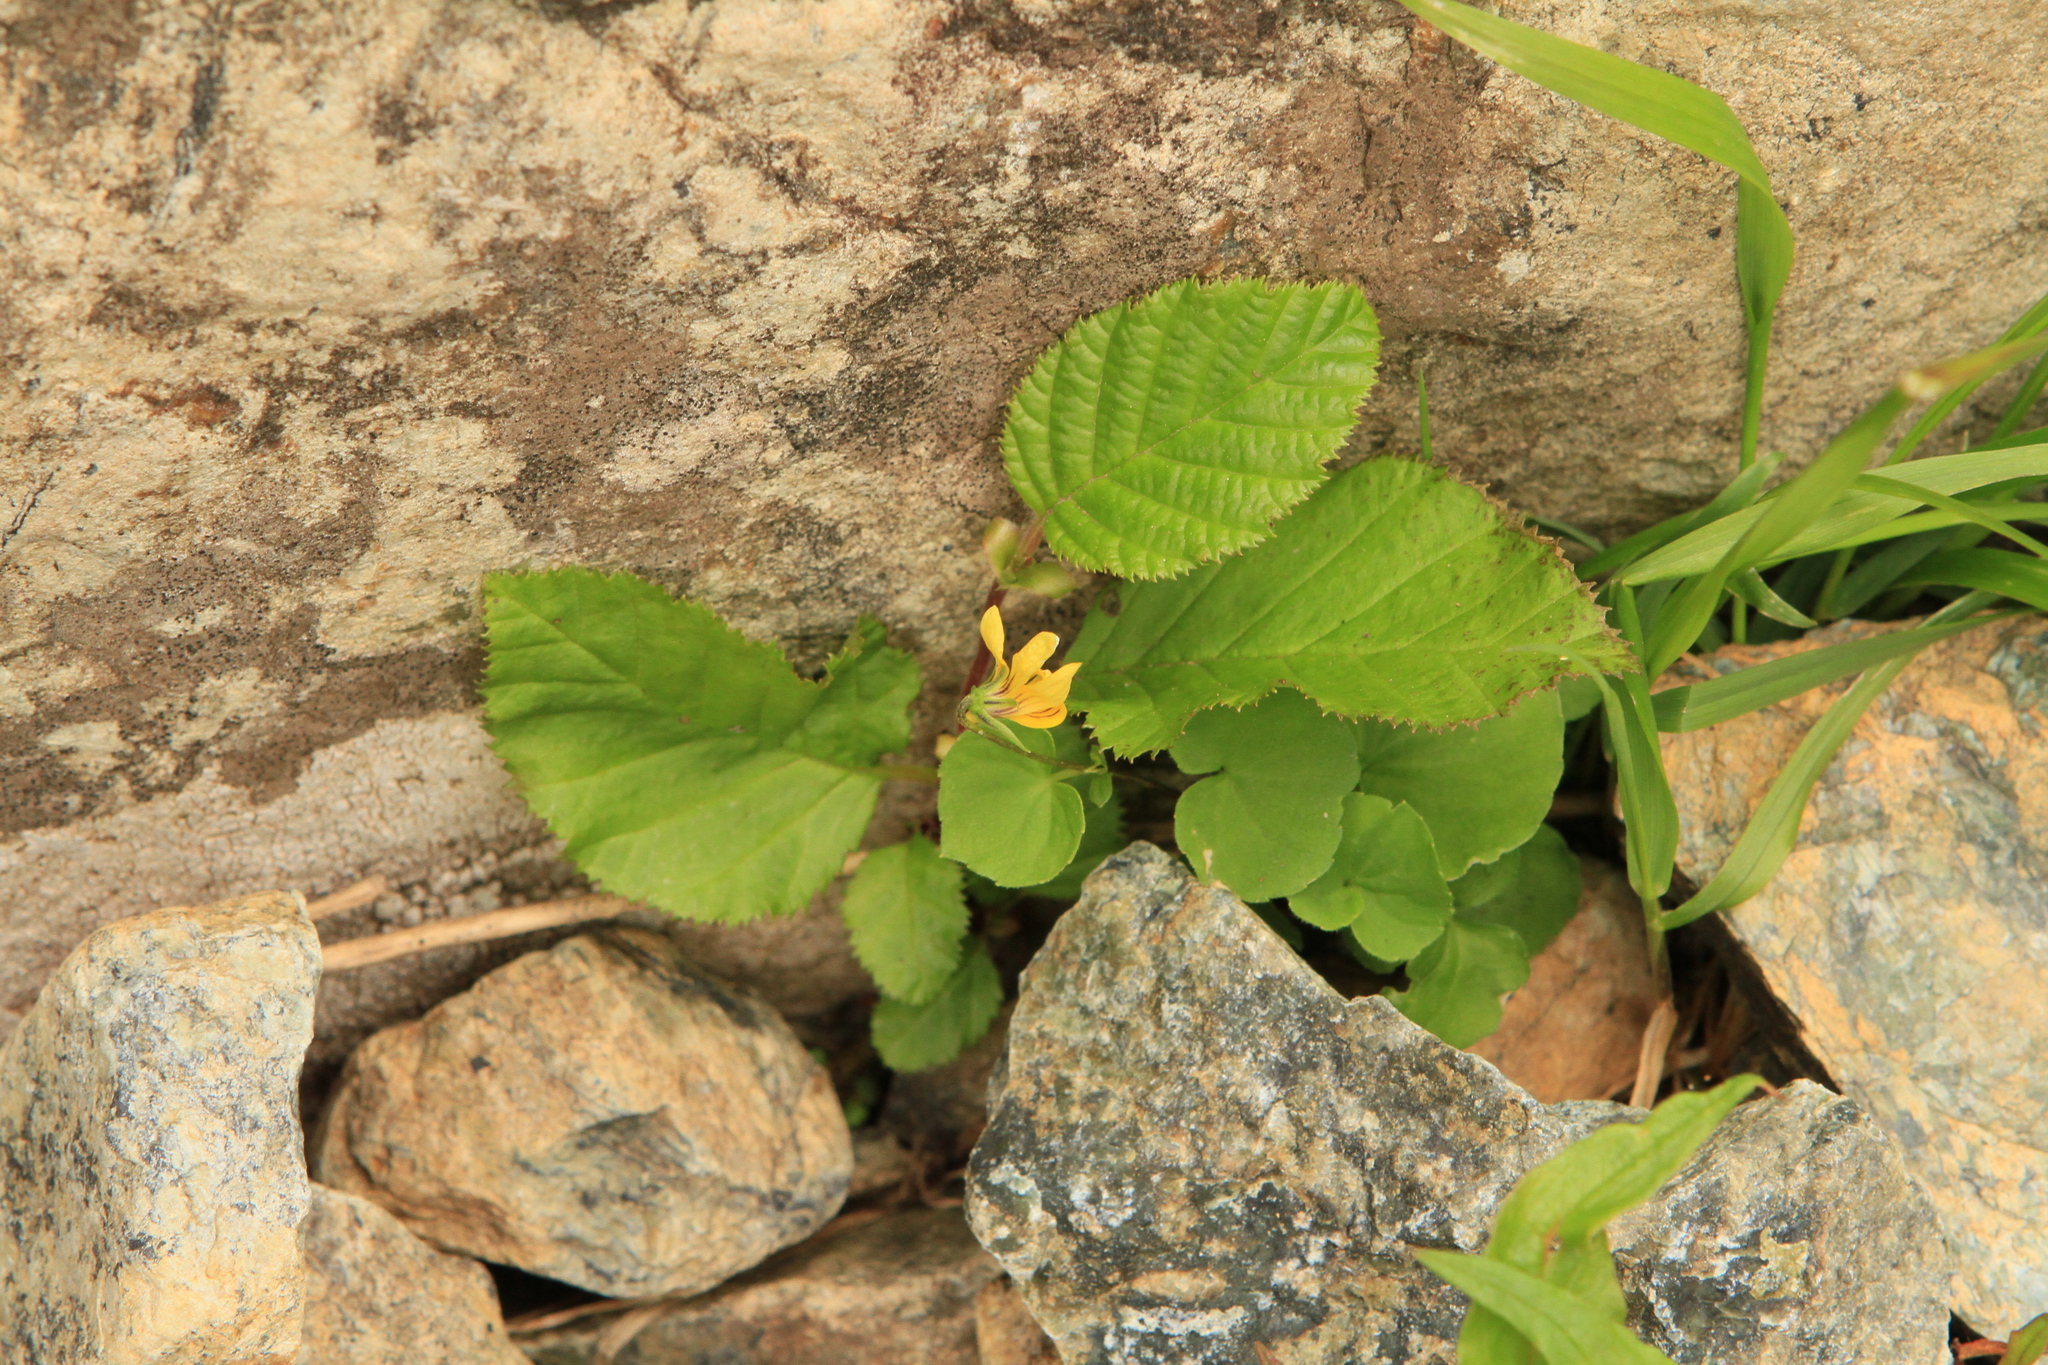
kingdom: Plantae
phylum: Tracheophyta
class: Magnoliopsida
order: Malpighiales
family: Violaceae
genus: Viola
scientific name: Viola biflora
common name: Alpine yellow violet
